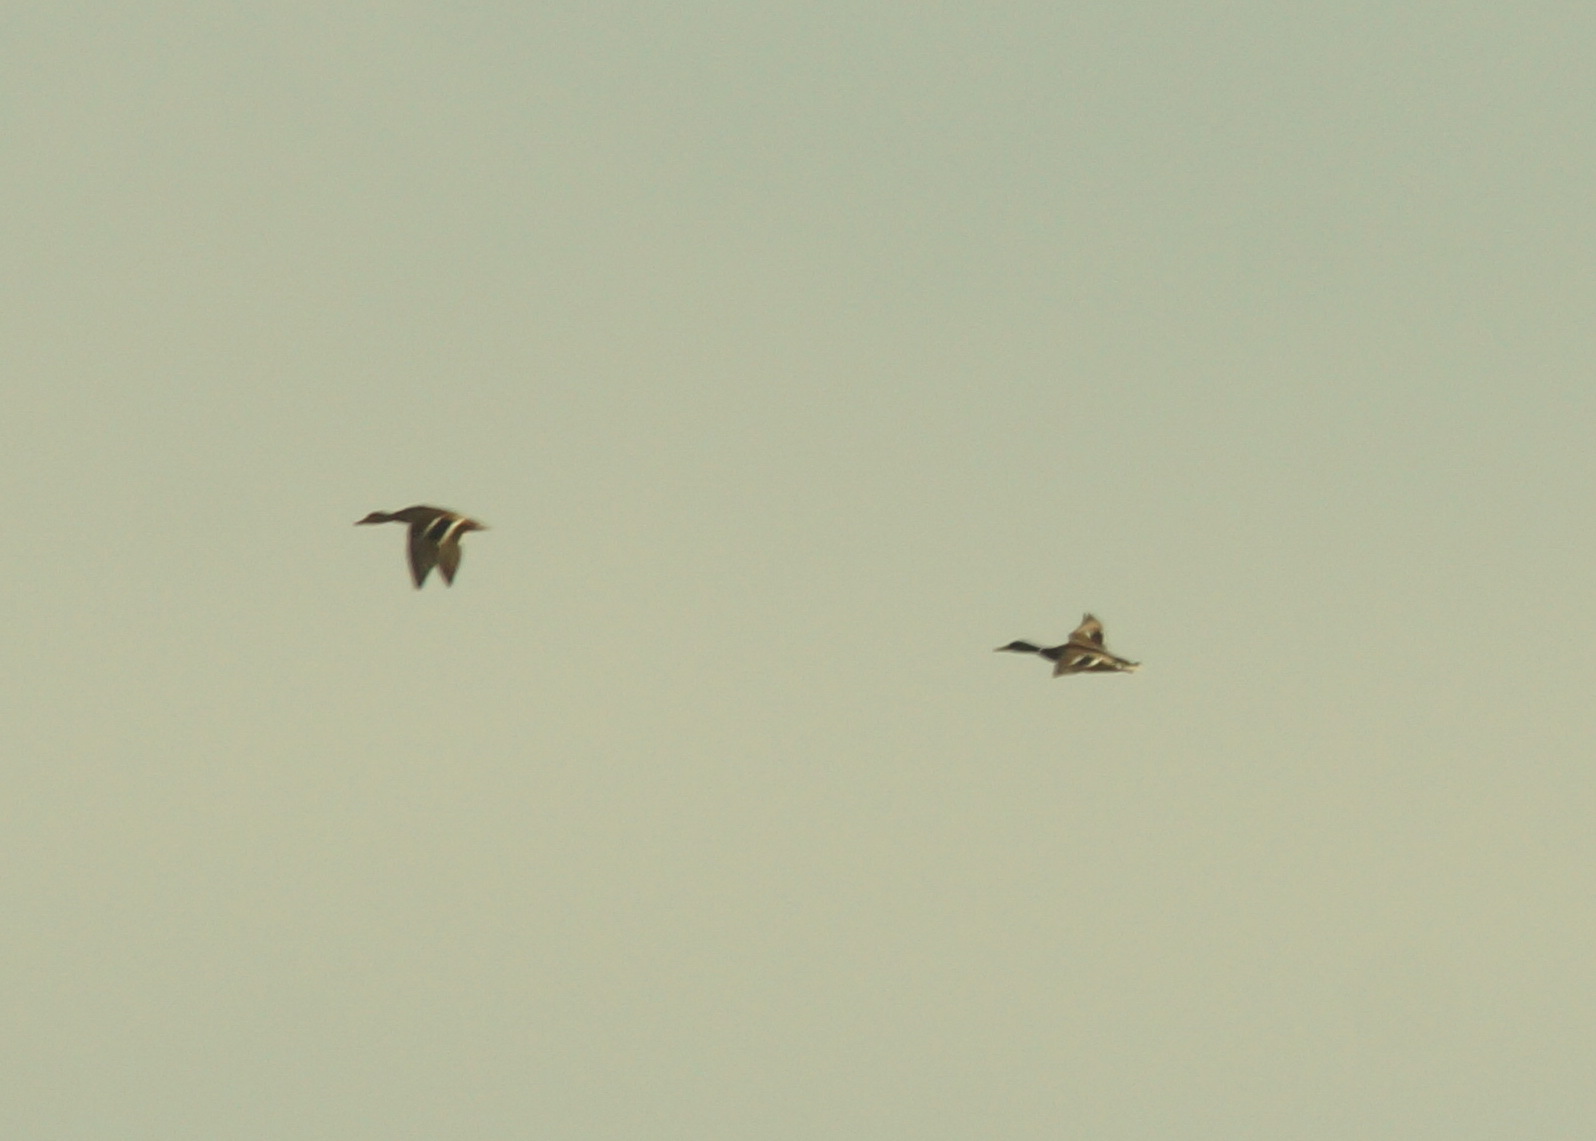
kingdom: Animalia
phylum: Chordata
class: Aves
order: Anseriformes
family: Anatidae
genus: Anas
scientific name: Anas platyrhynchos
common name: Mallard
